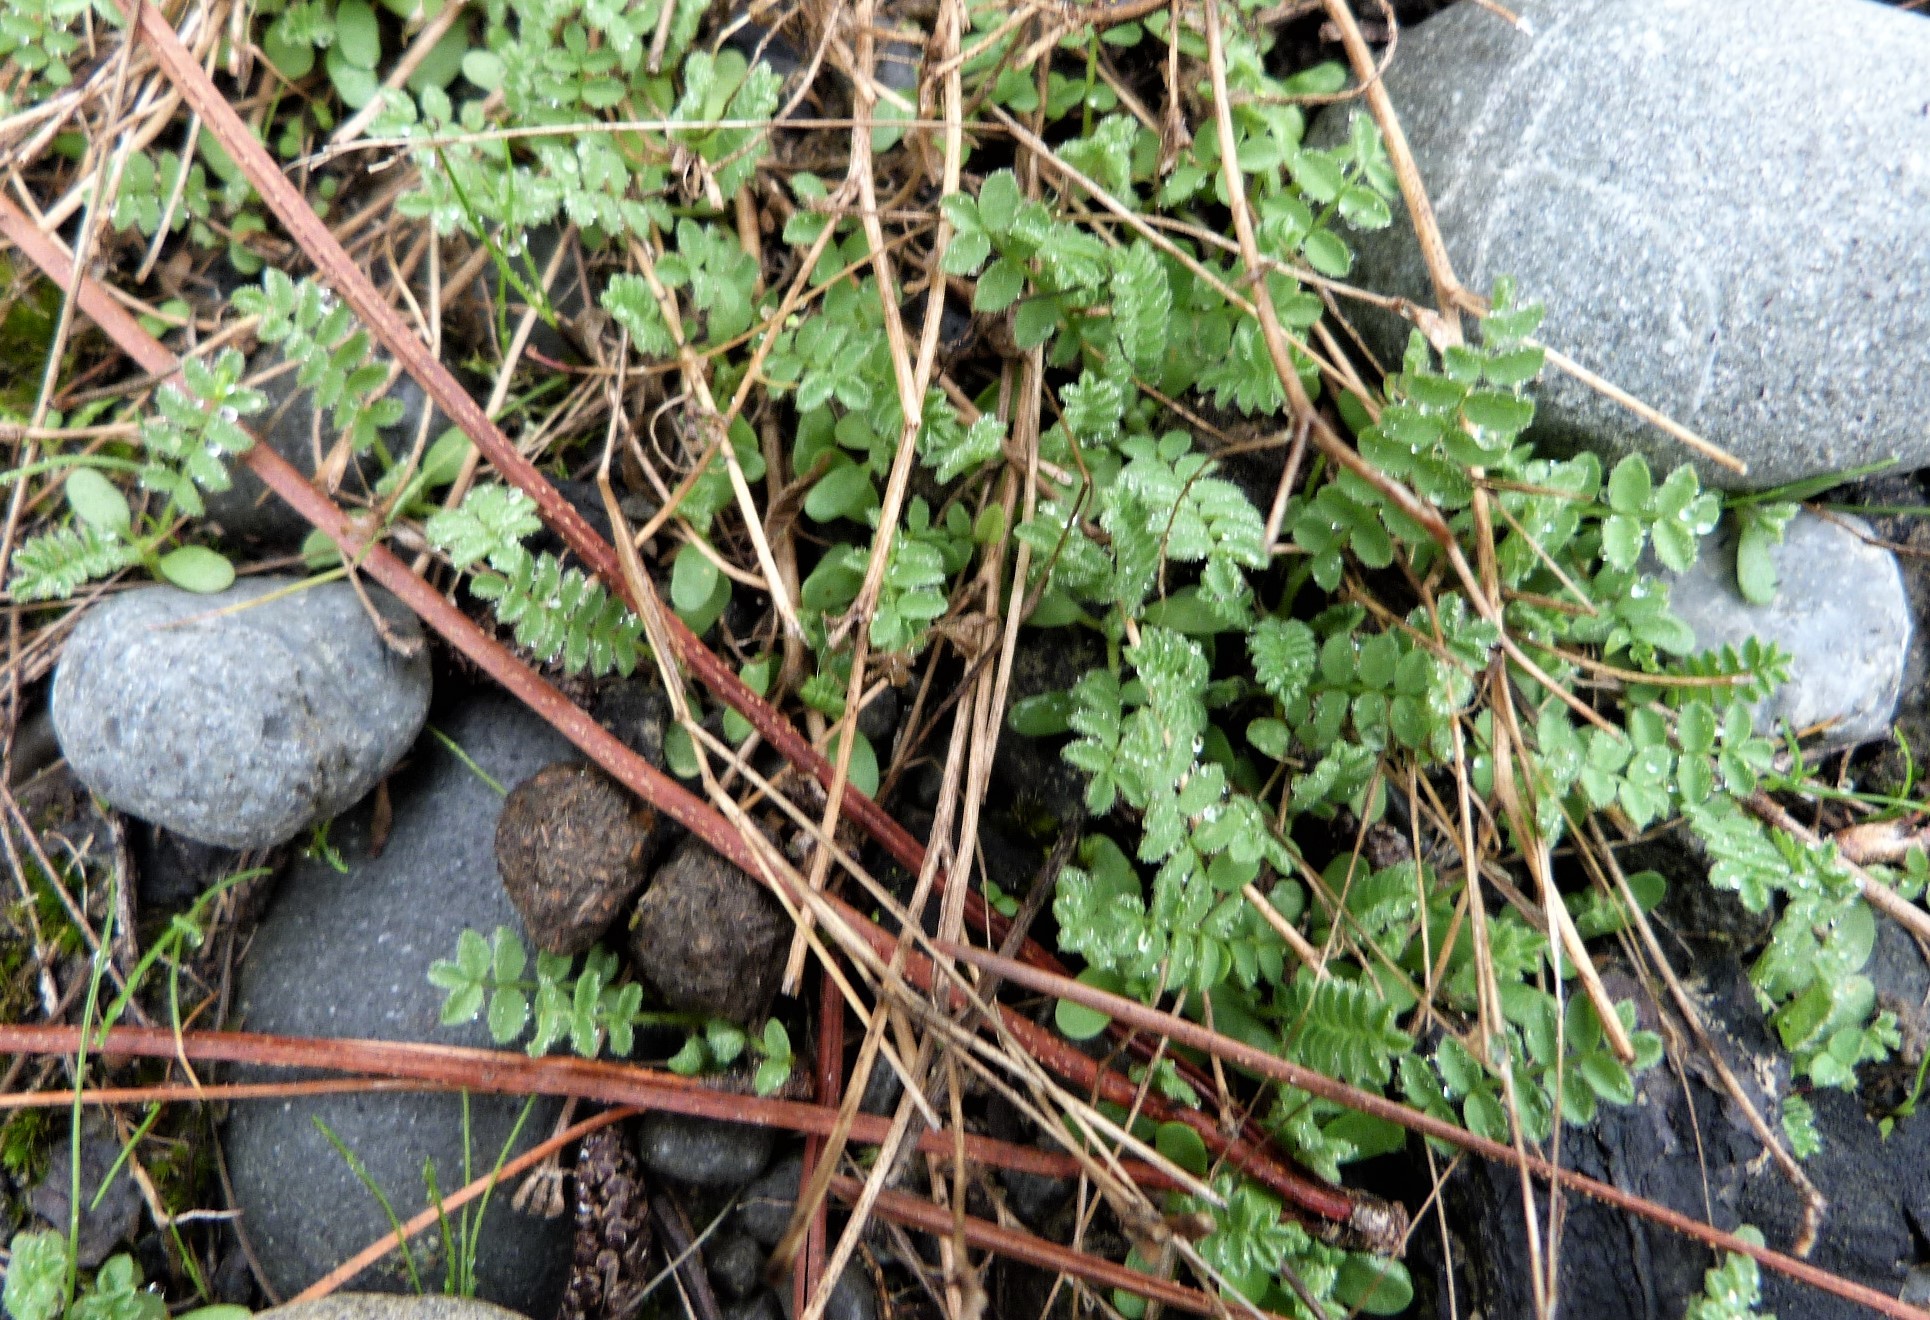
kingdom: Plantae
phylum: Tracheophyta
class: Magnoliopsida
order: Fabales
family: Fabaceae
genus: Coronilla
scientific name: Coronilla varia
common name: Crownvetch
